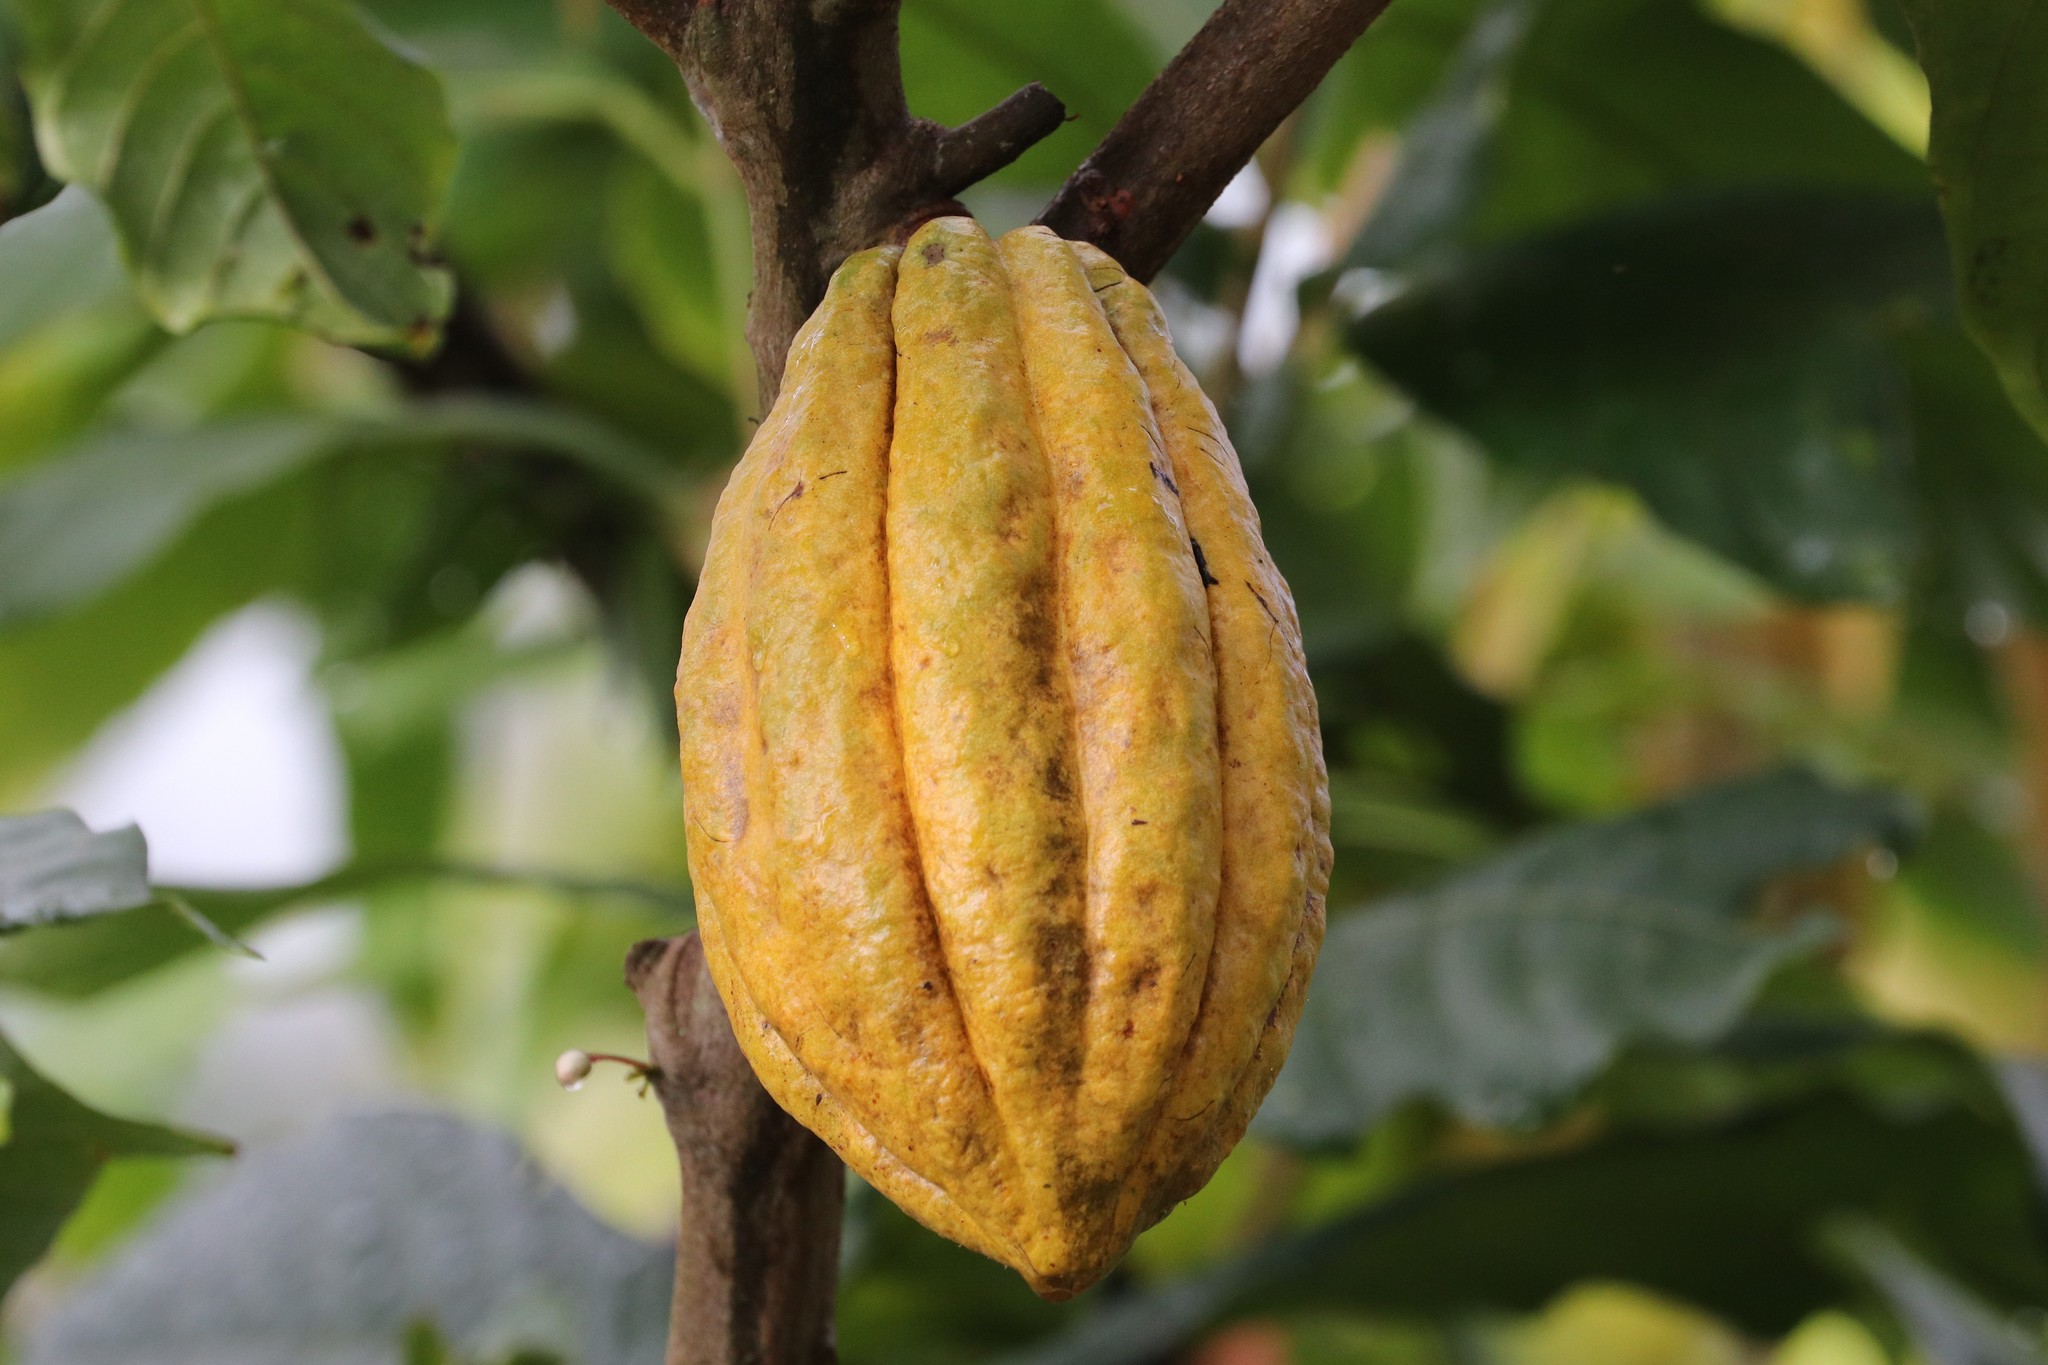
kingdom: Plantae
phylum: Tracheophyta
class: Magnoliopsida
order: Malvales
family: Malvaceae
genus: Theobroma
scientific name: Theobroma cacao
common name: Cocoa
